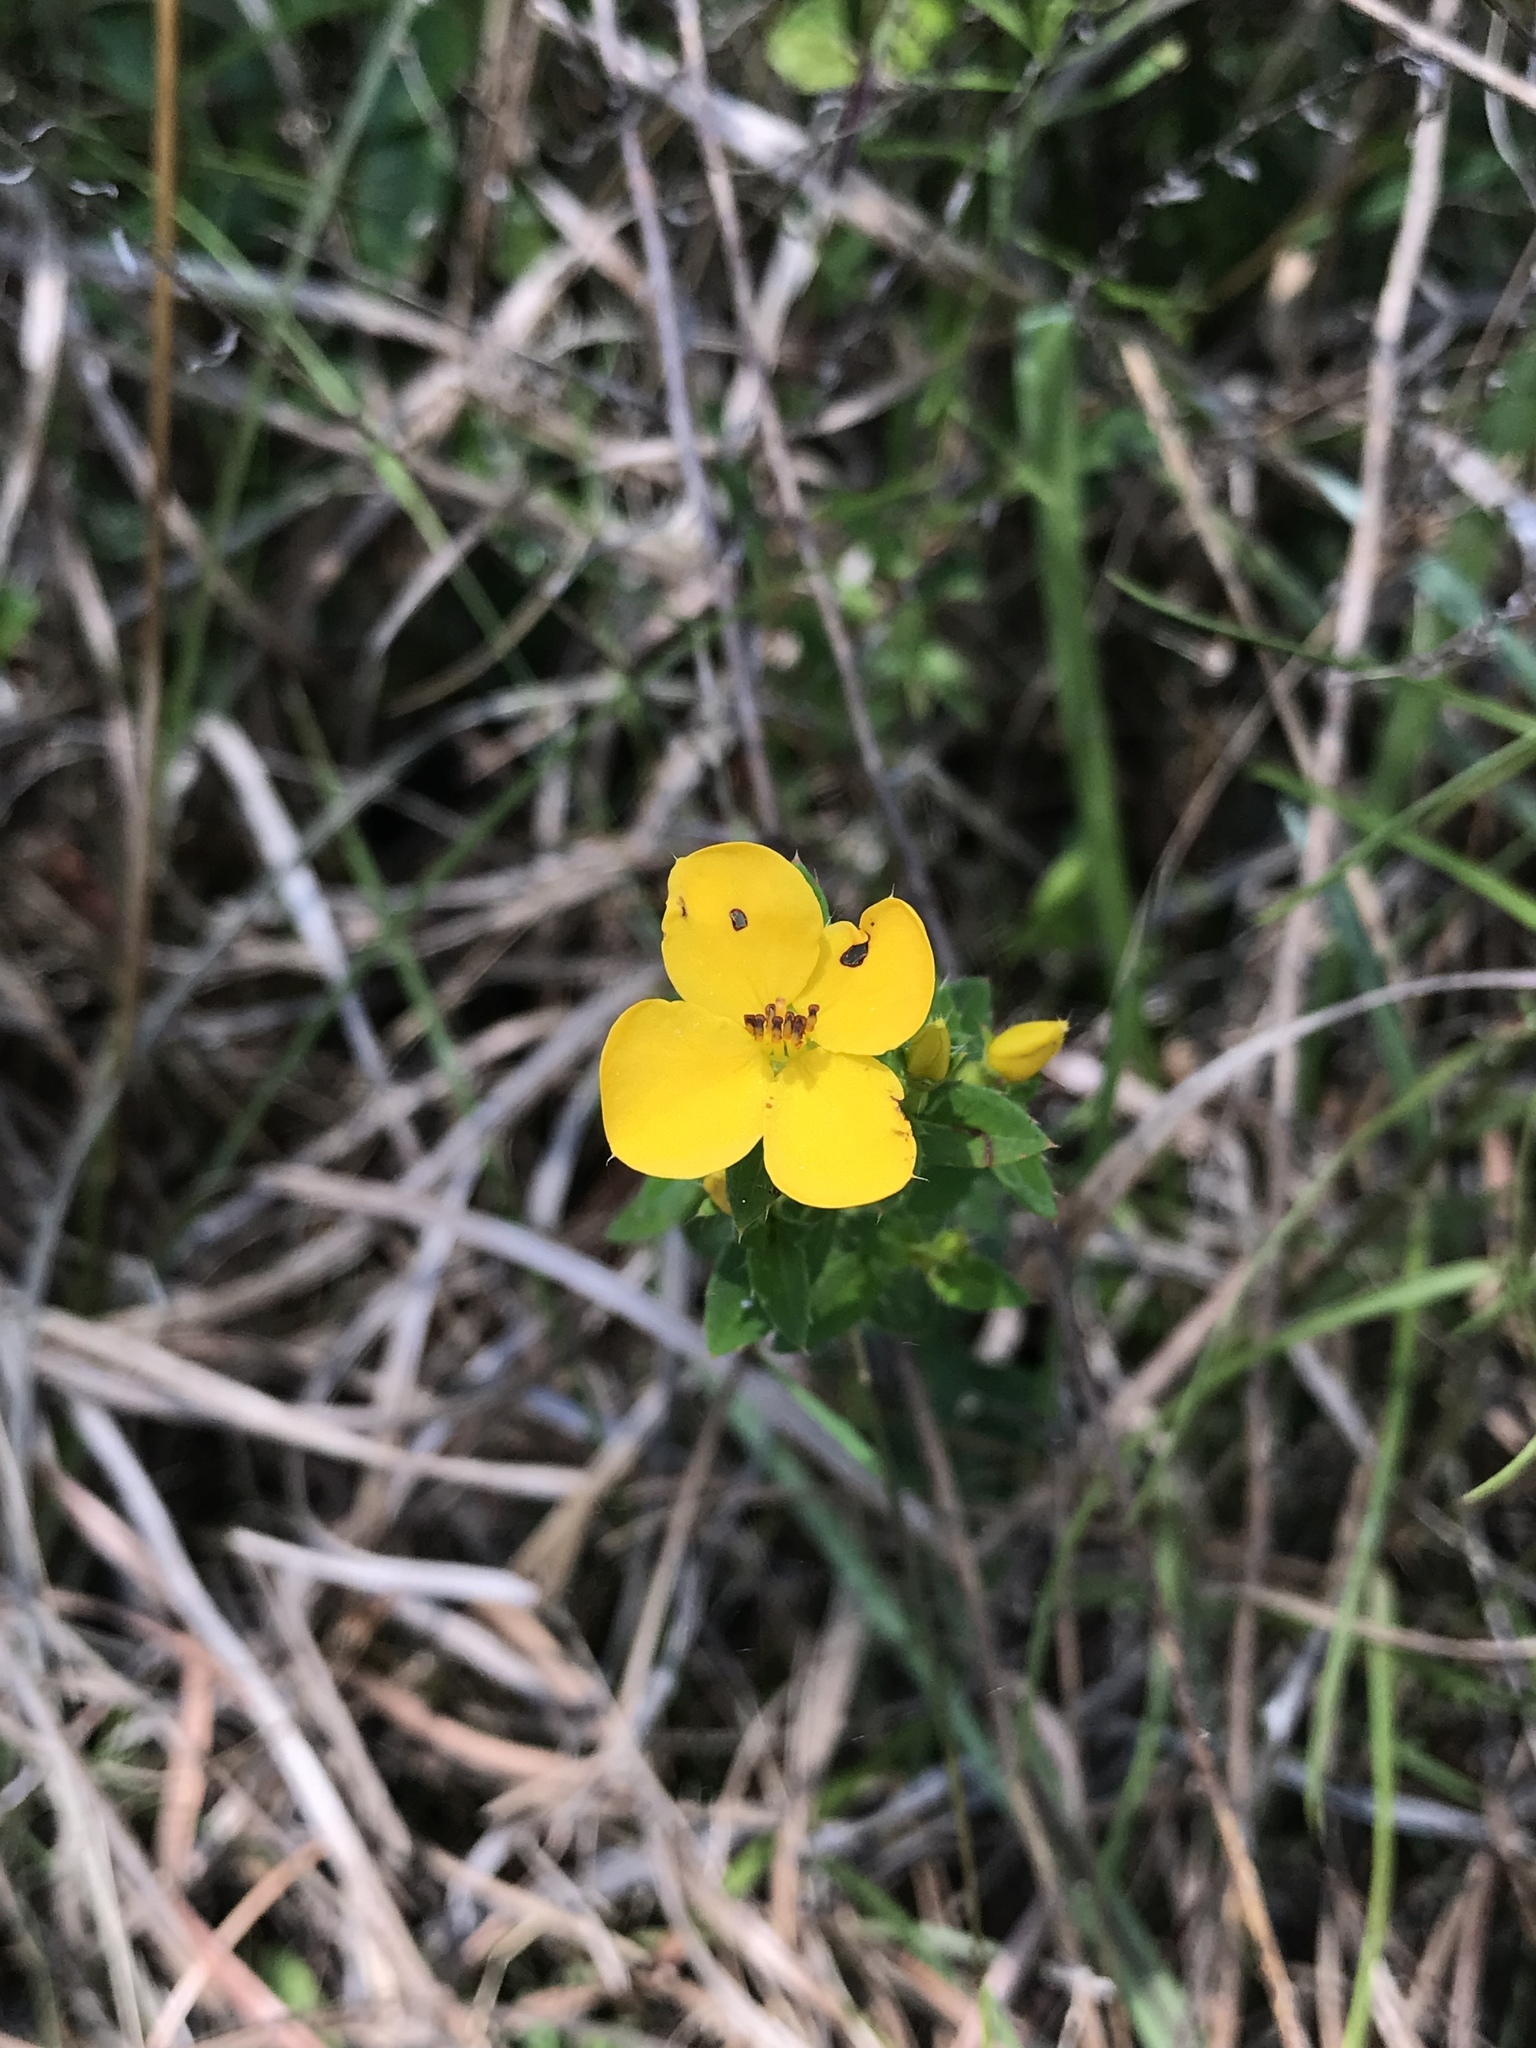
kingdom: Plantae
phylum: Tracheophyta
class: Magnoliopsida
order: Myrtales
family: Melastomataceae
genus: Rhexia
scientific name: Rhexia lutea
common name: Golden meadow-beauty
